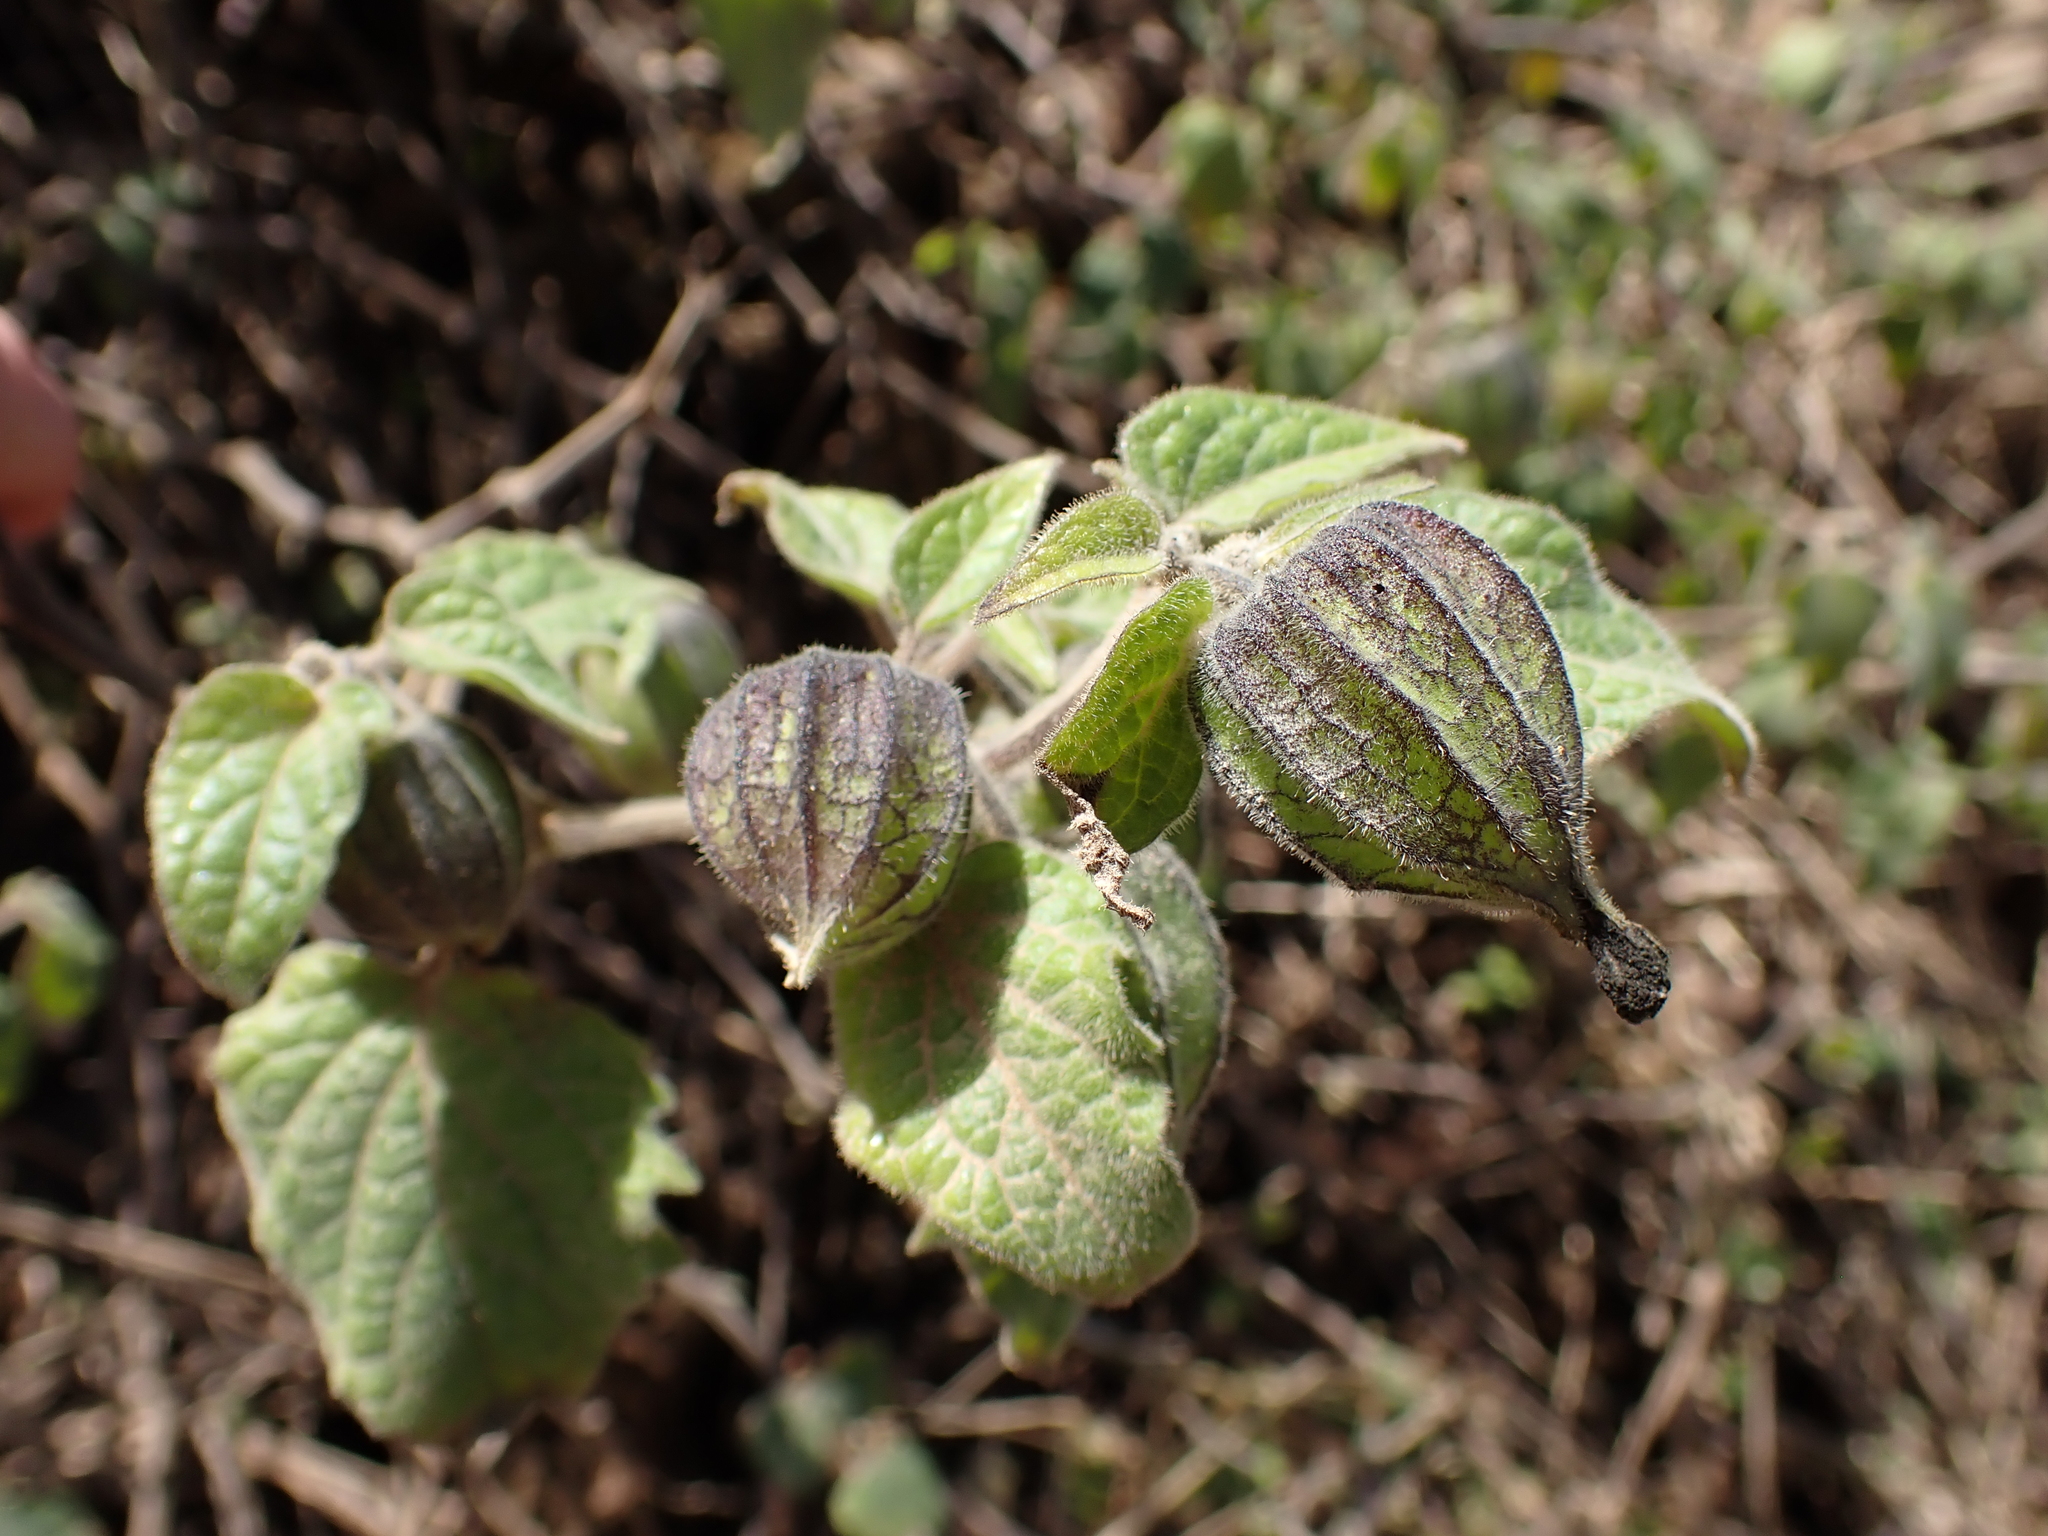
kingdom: Plantae
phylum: Tracheophyta
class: Magnoliopsida
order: Solanales
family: Solanaceae
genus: Physalis
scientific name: Physalis peruviana
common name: Cape-gooseberry
